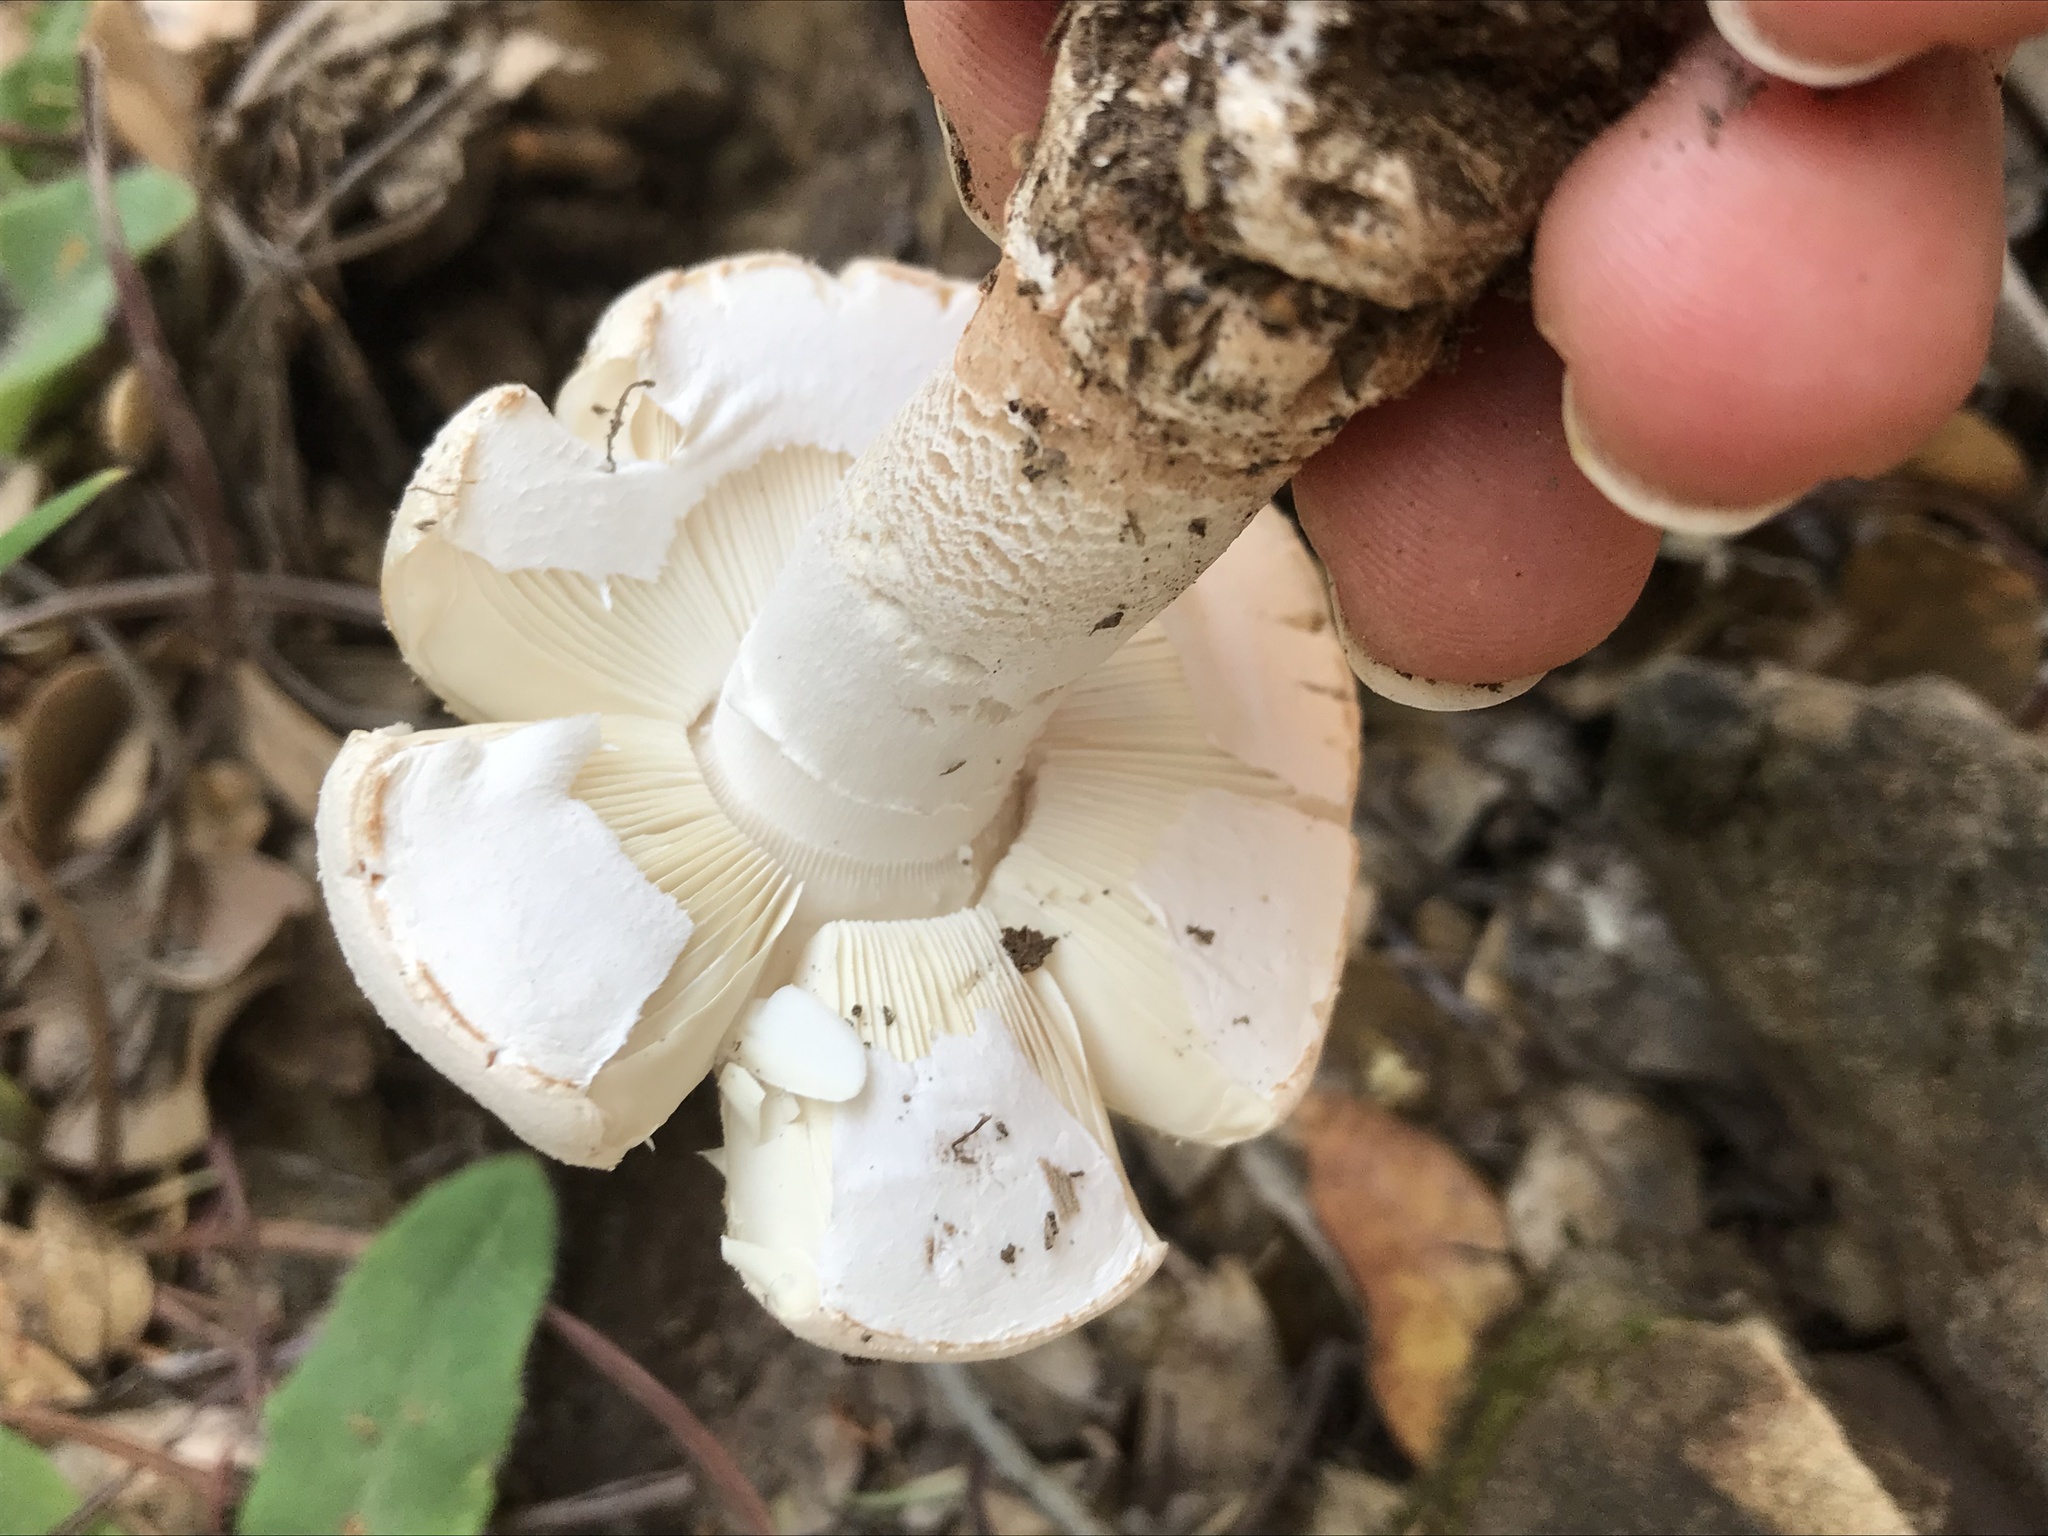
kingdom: Fungi
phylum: Basidiomycota
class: Agaricomycetes
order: Agaricales
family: Amanitaceae
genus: Amanita
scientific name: Amanita novinupta
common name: Blushing bride
